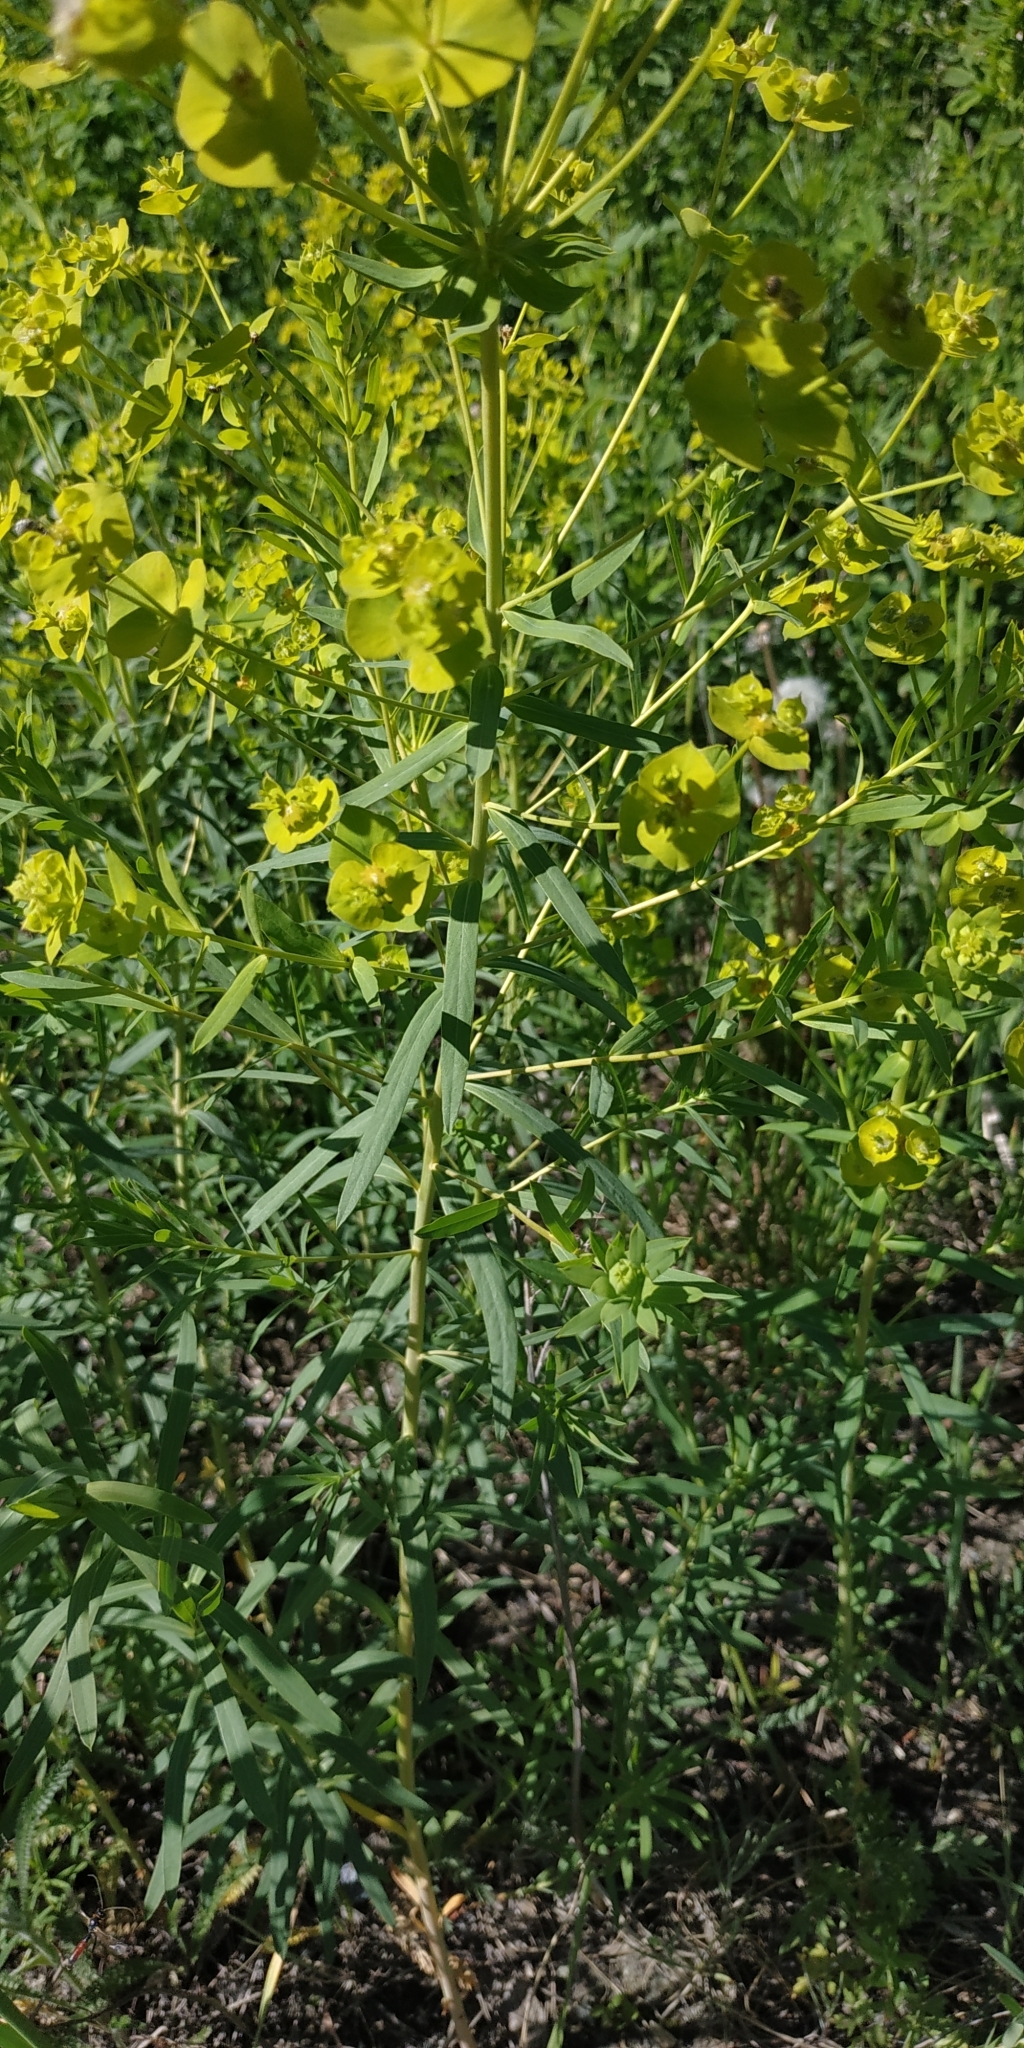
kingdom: Plantae
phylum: Tracheophyta
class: Magnoliopsida
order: Malpighiales
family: Euphorbiaceae
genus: Euphorbia
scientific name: Euphorbia virgata
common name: Leafy spurge
